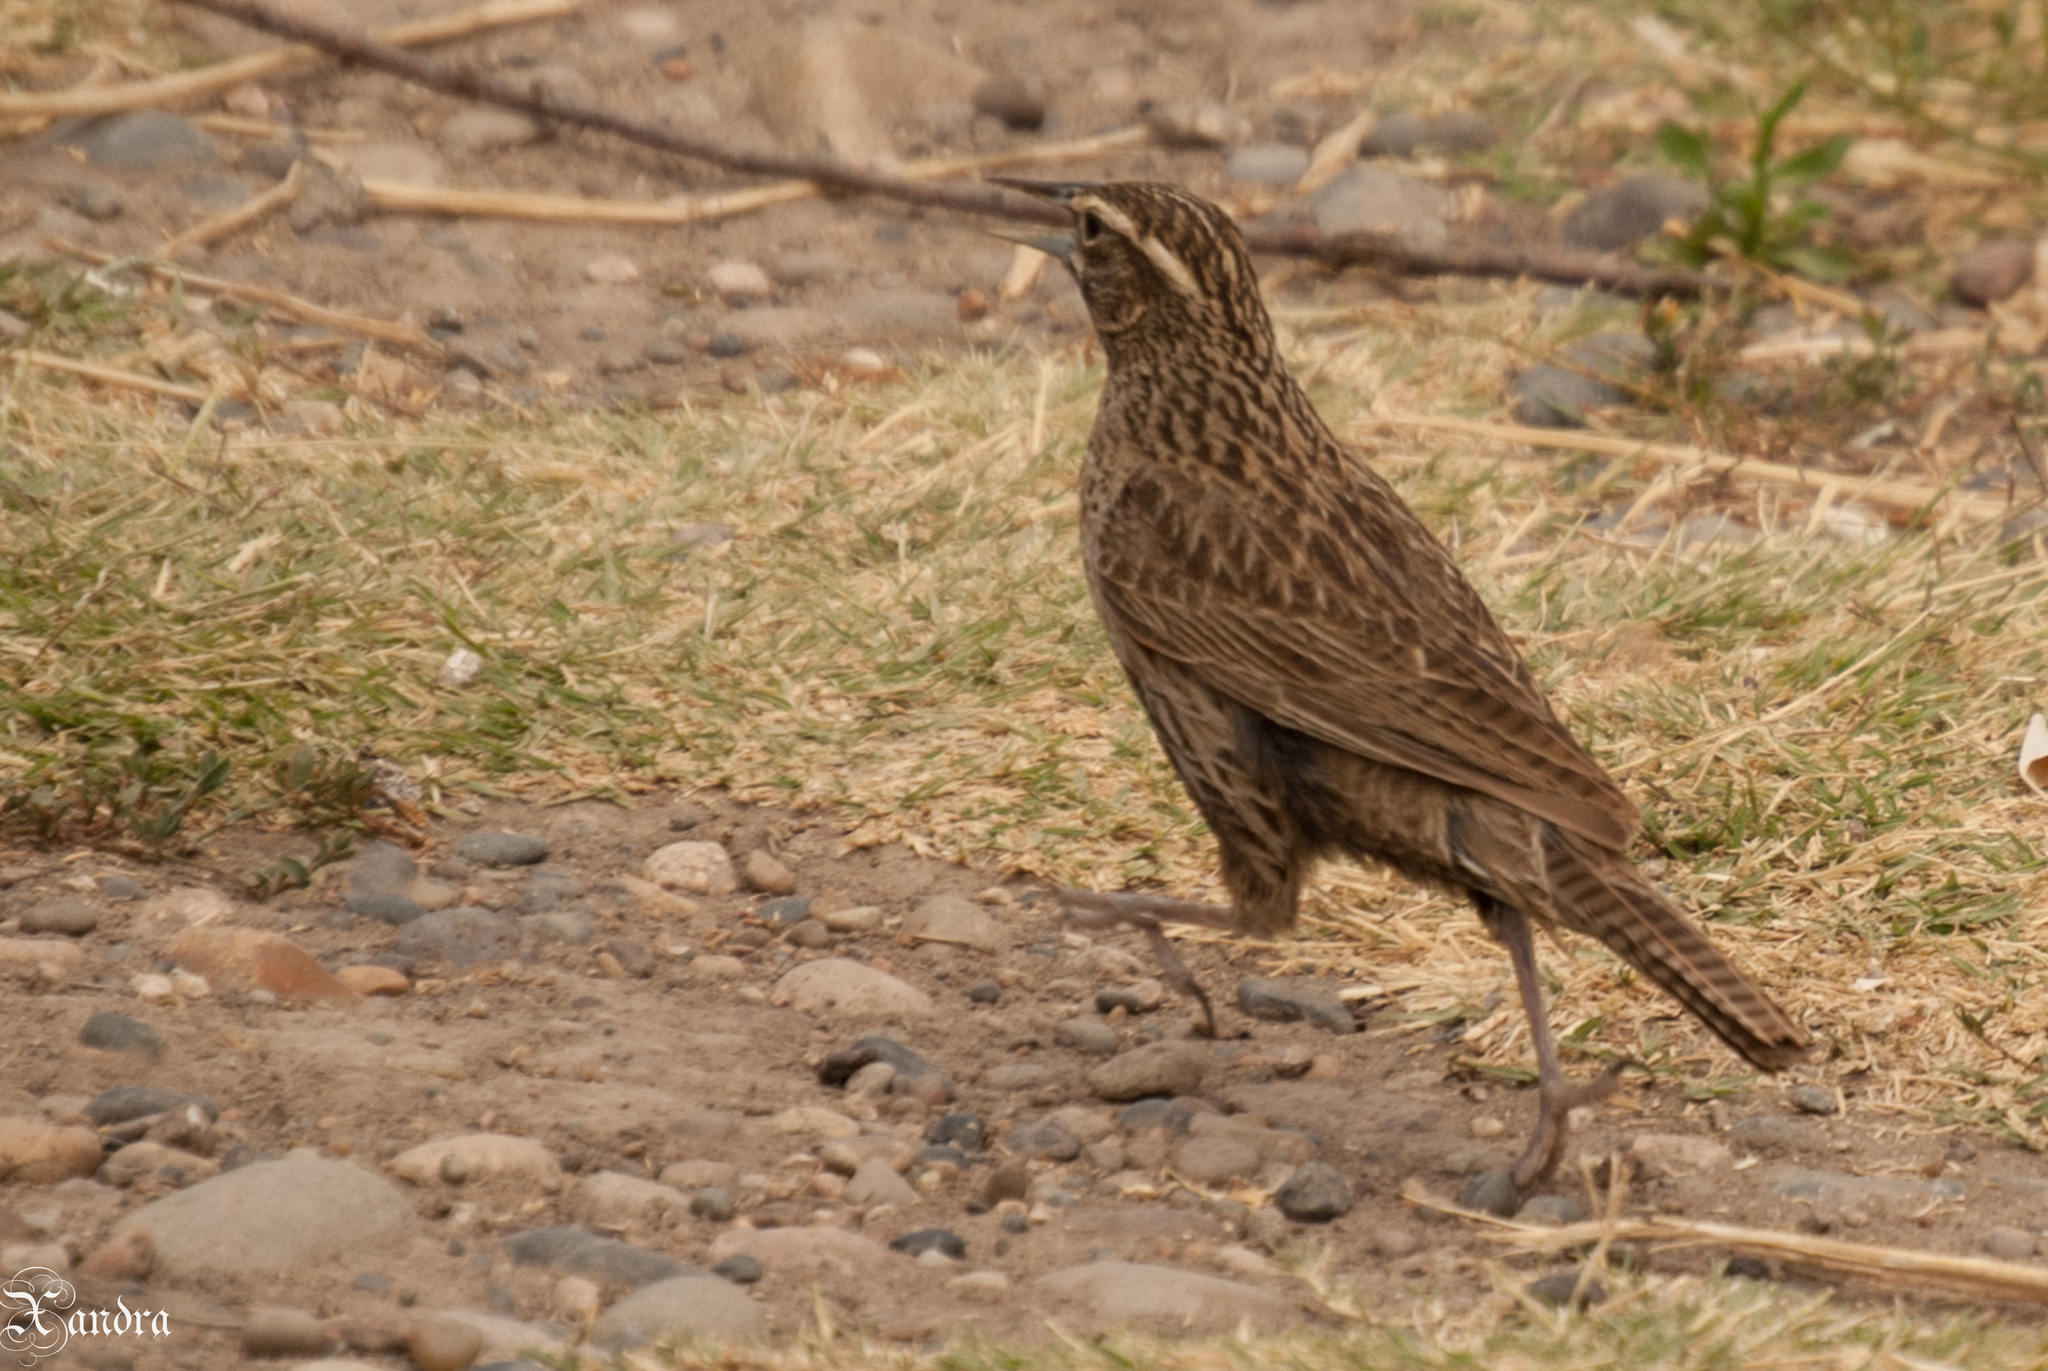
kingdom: Animalia
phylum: Chordata
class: Aves
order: Passeriformes
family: Icteridae
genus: Sturnella
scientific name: Sturnella loyca
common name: Long-tailed meadowlark
